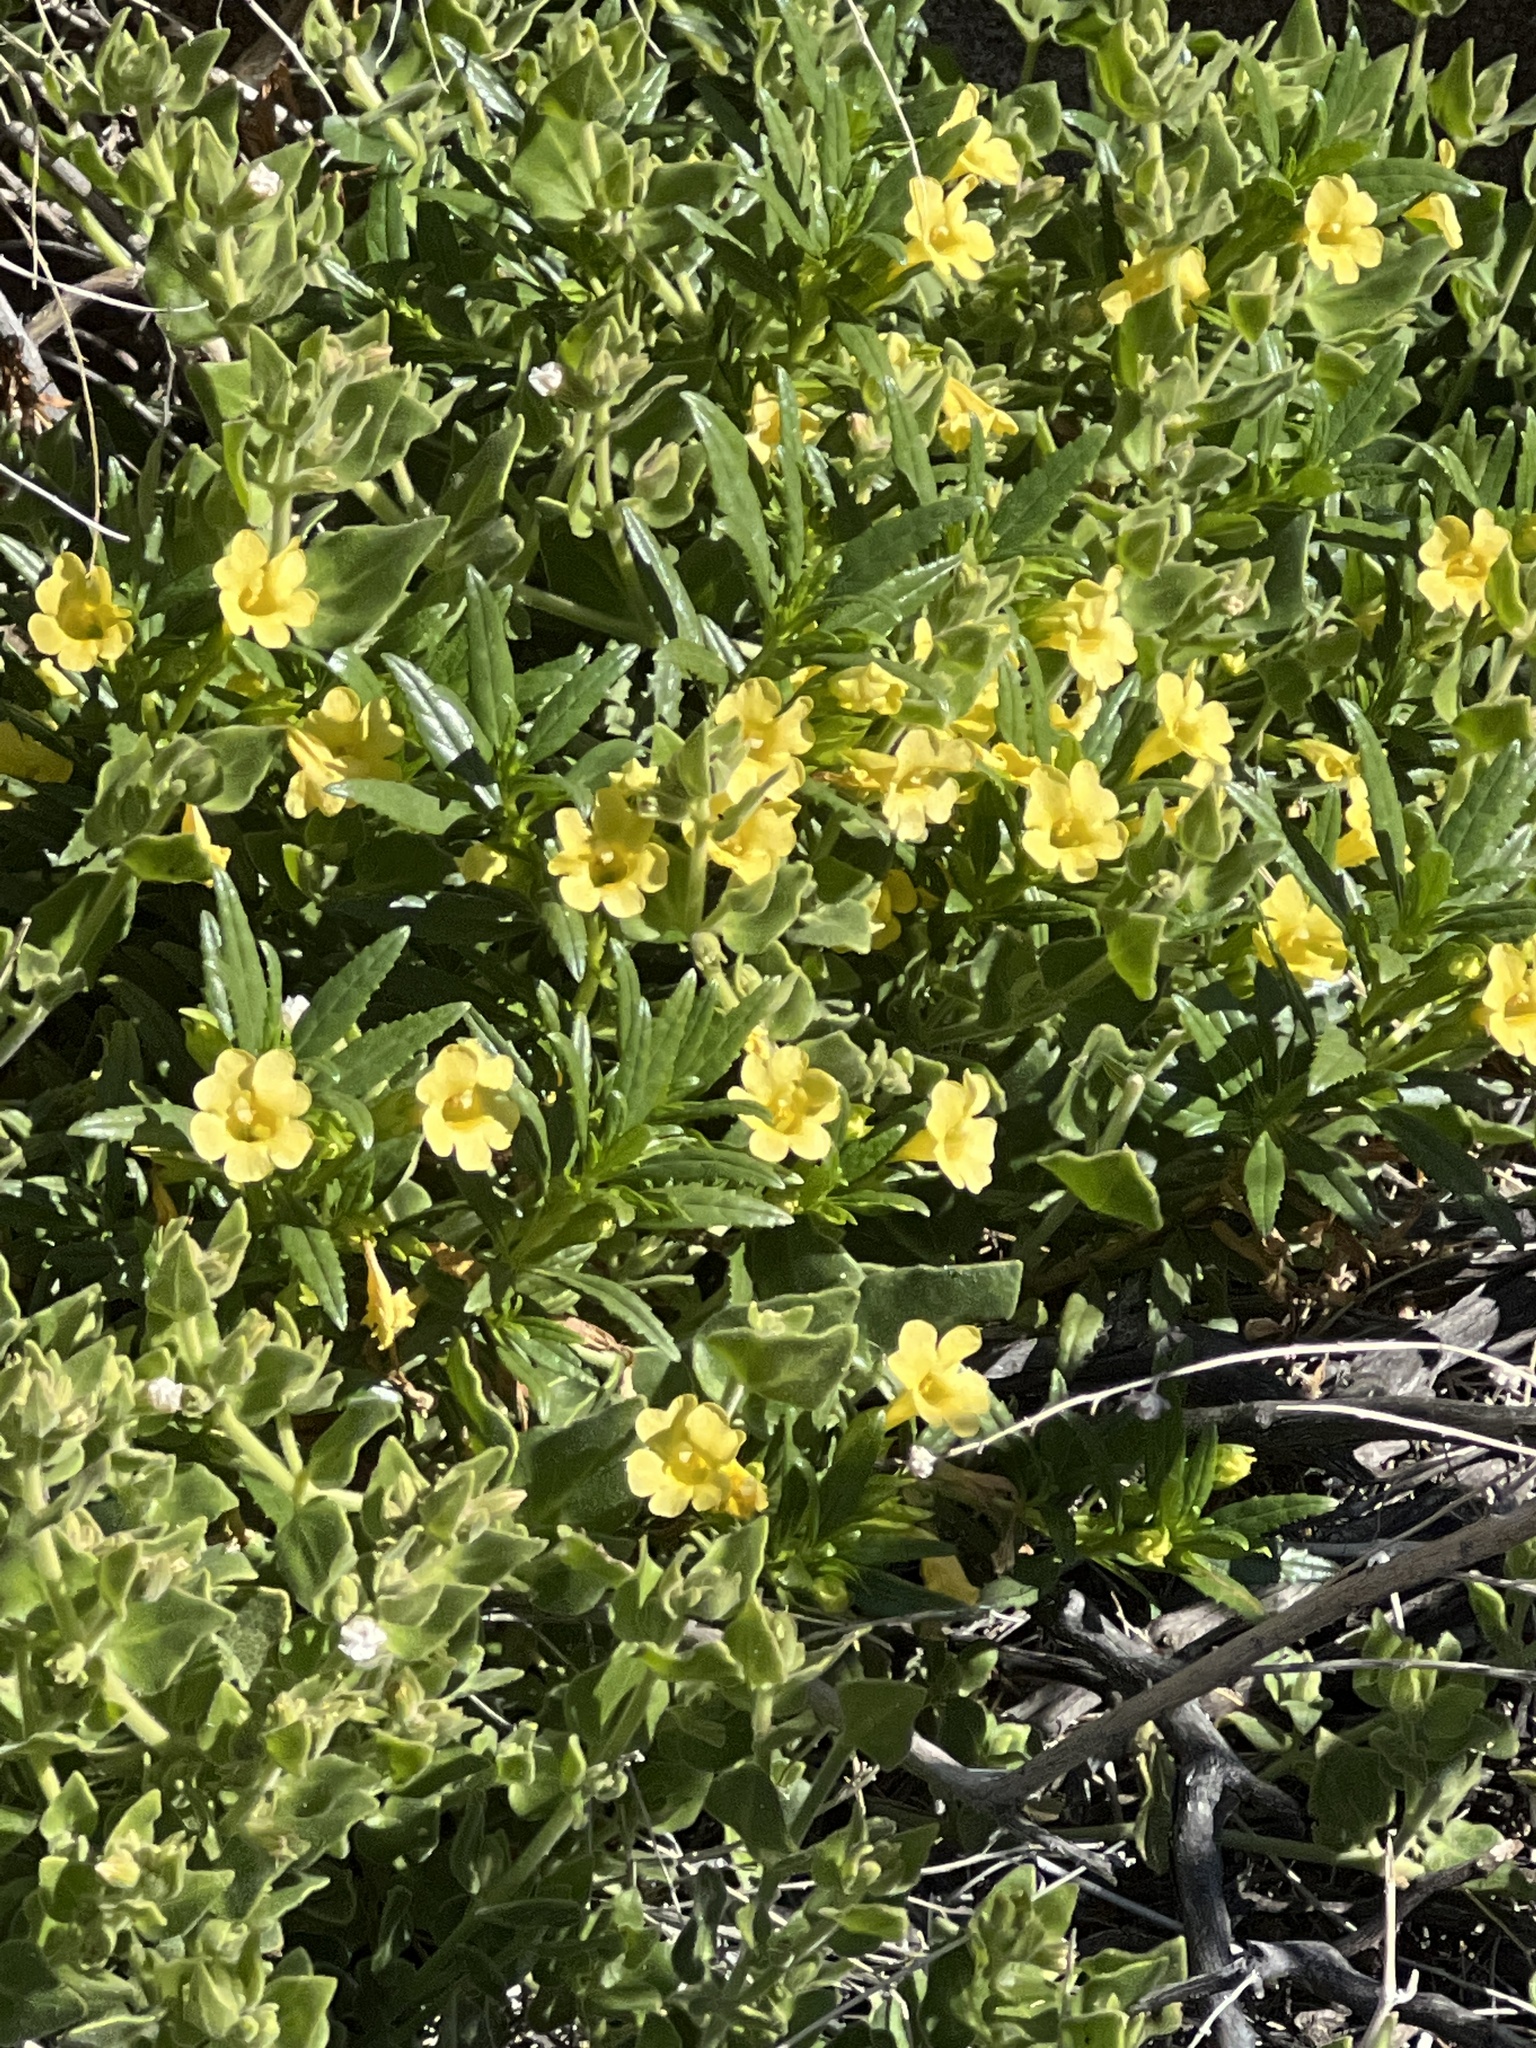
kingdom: Plantae
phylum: Tracheophyta
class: Magnoliopsida
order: Lamiales
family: Phrymaceae
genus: Diplacus
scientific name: Diplacus aridus
